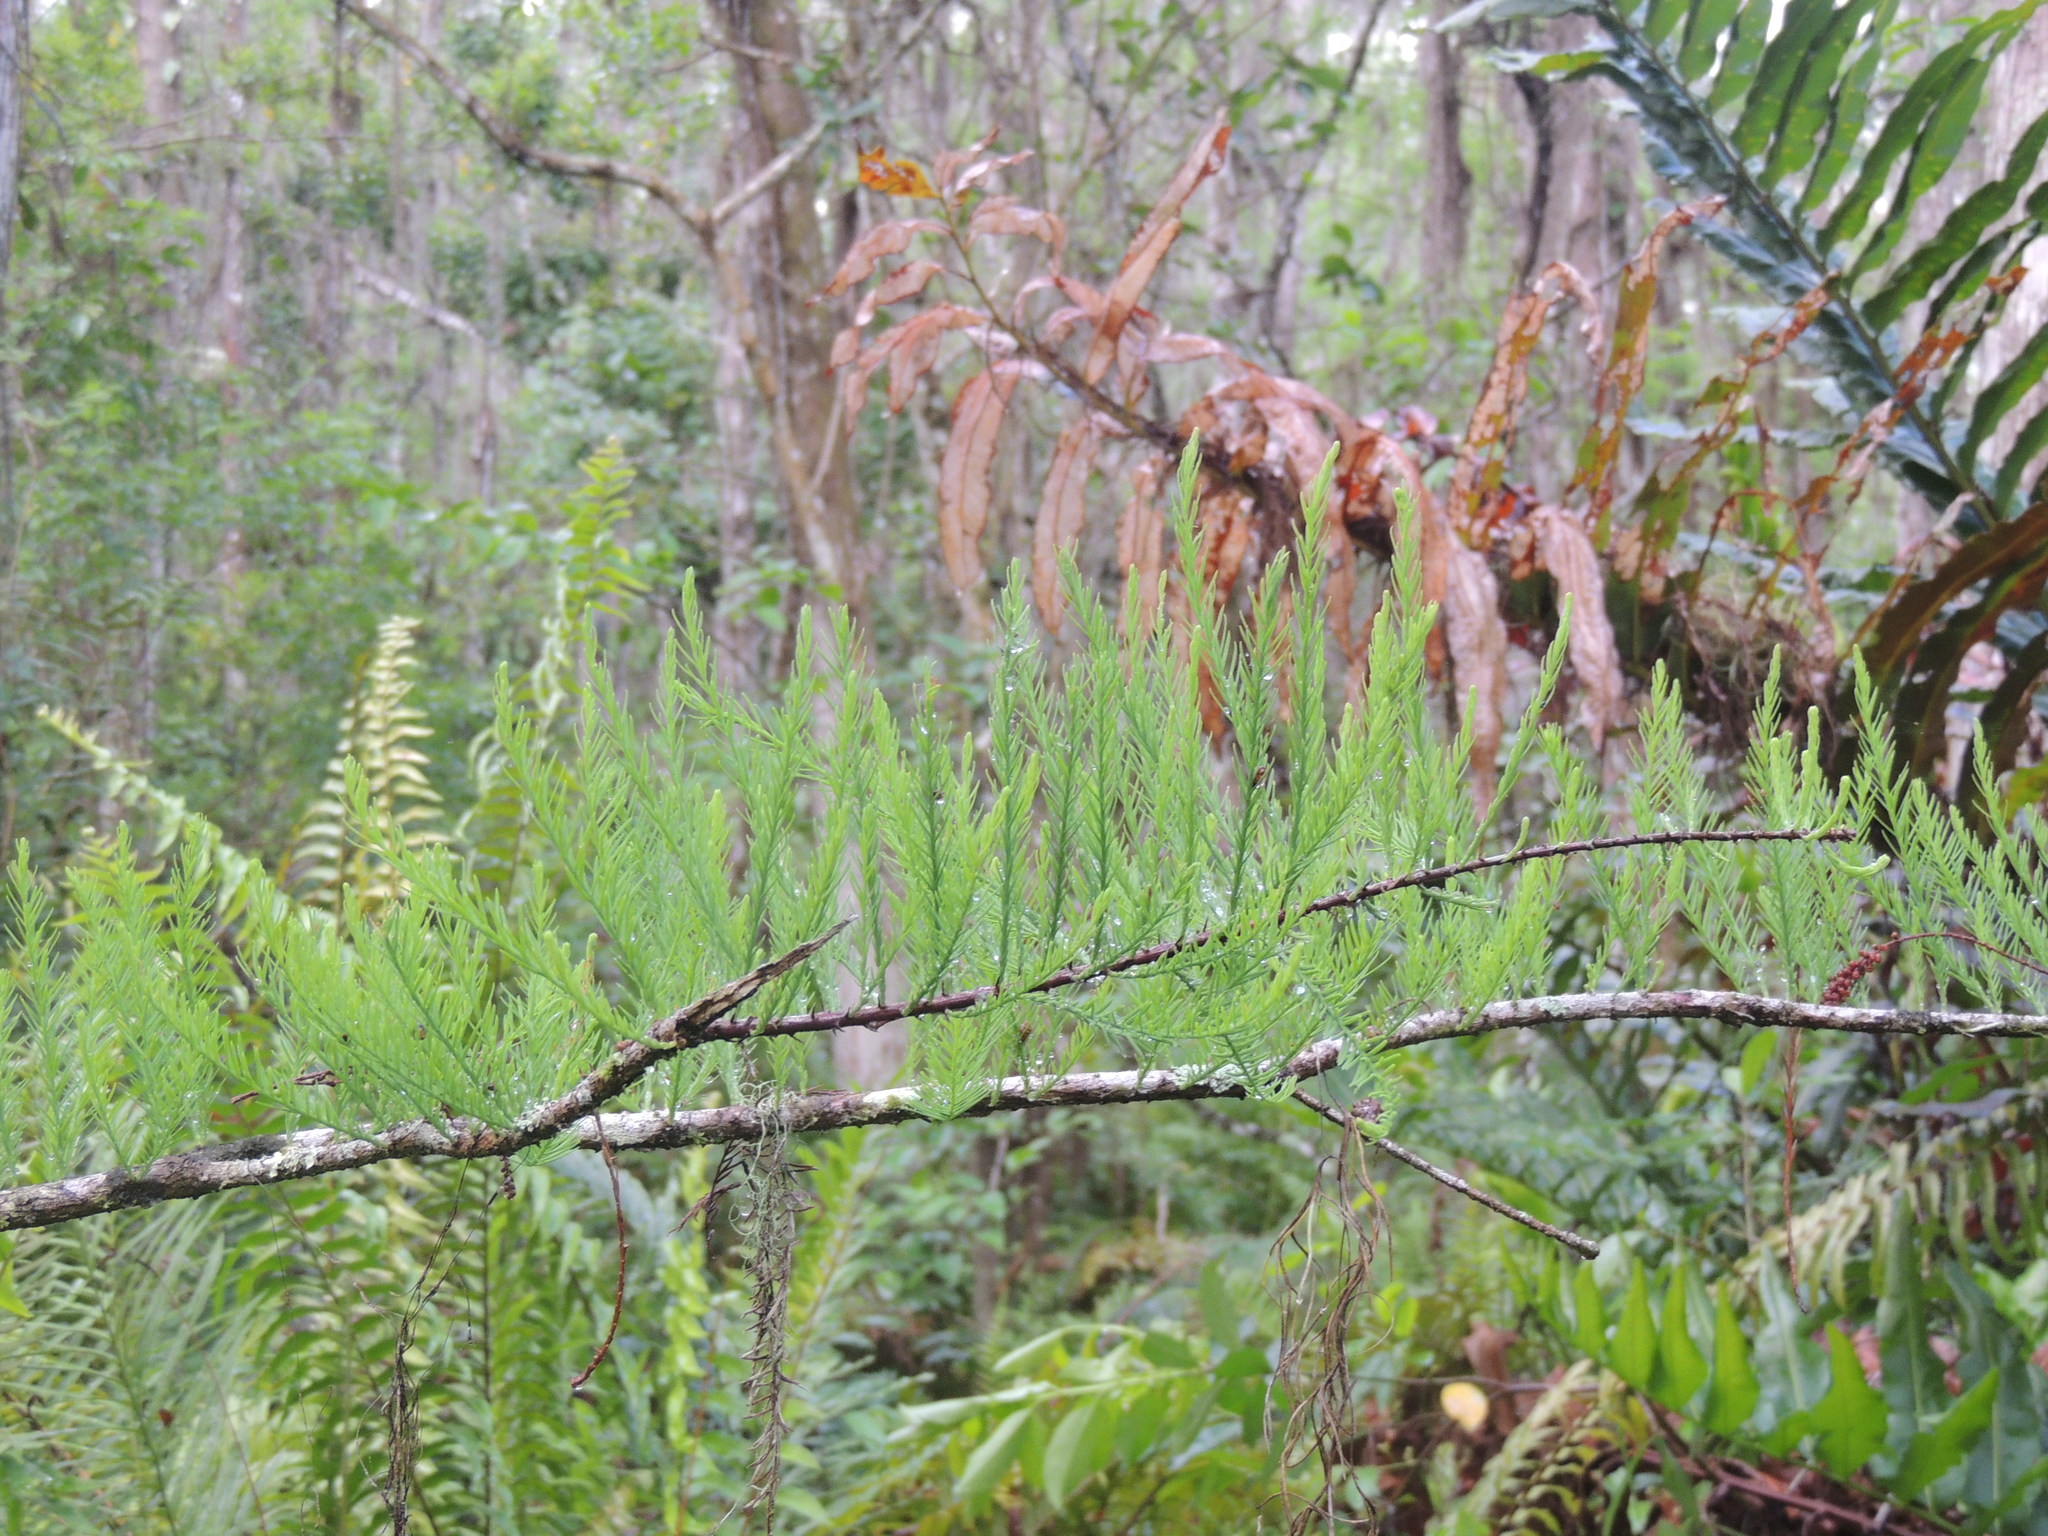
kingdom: Plantae
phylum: Tracheophyta
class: Pinopsida
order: Pinales
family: Cupressaceae
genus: Taxodium
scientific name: Taxodium distichum
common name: Bald cypress
